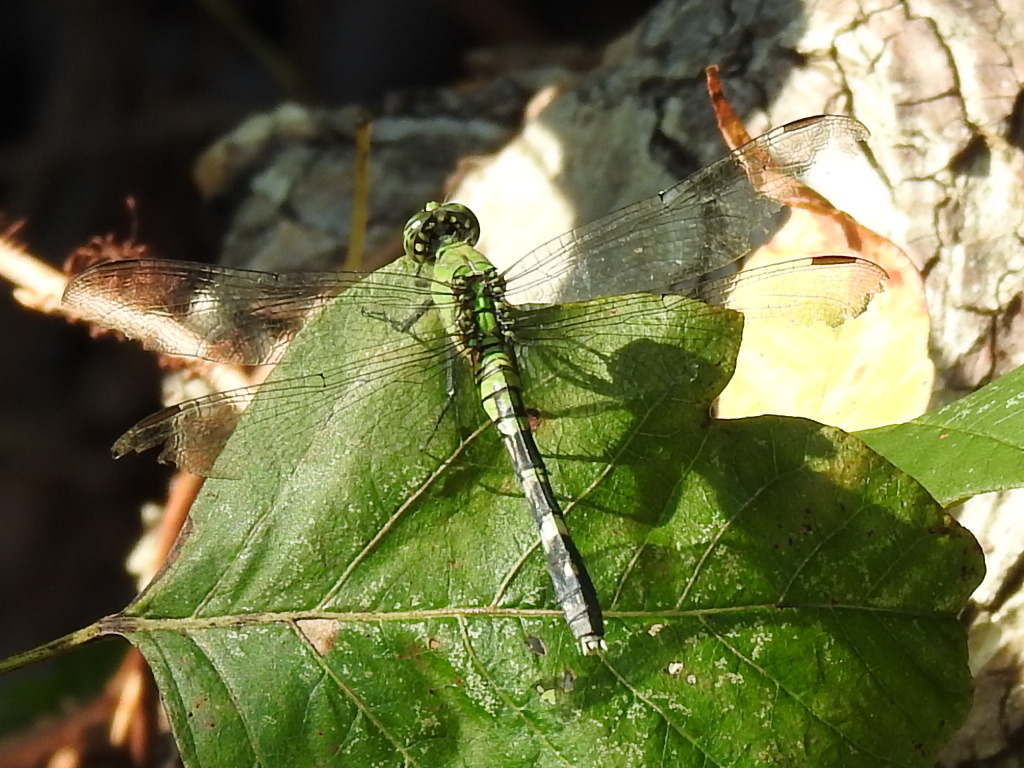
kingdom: Animalia
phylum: Arthropoda
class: Insecta
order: Odonata
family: Libellulidae
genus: Erythemis
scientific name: Erythemis simplicicollis
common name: Eastern pondhawk
